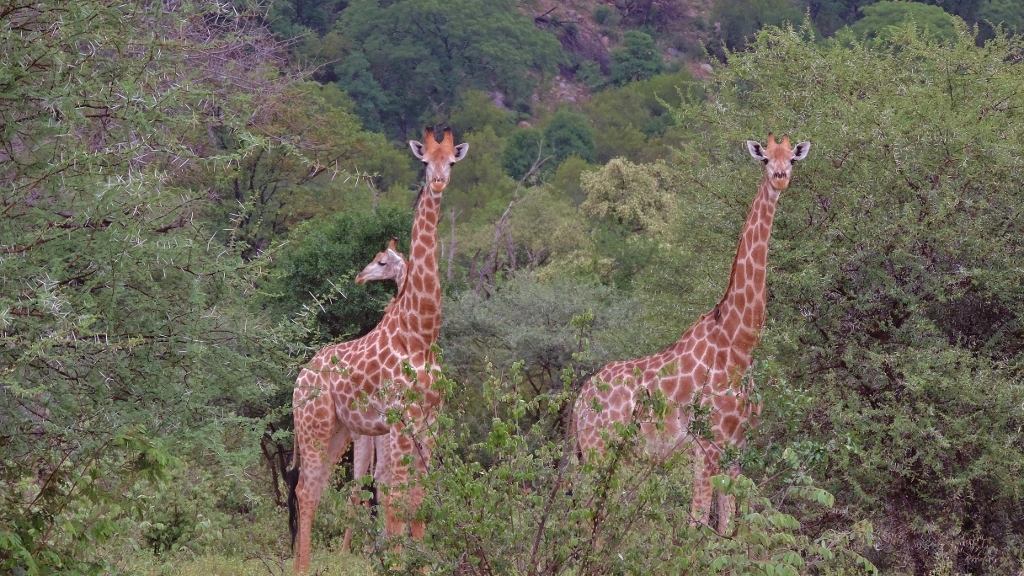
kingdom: Animalia
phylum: Chordata
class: Mammalia
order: Artiodactyla
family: Giraffidae
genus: Giraffa
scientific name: Giraffa giraffa
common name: Southern giraffe
